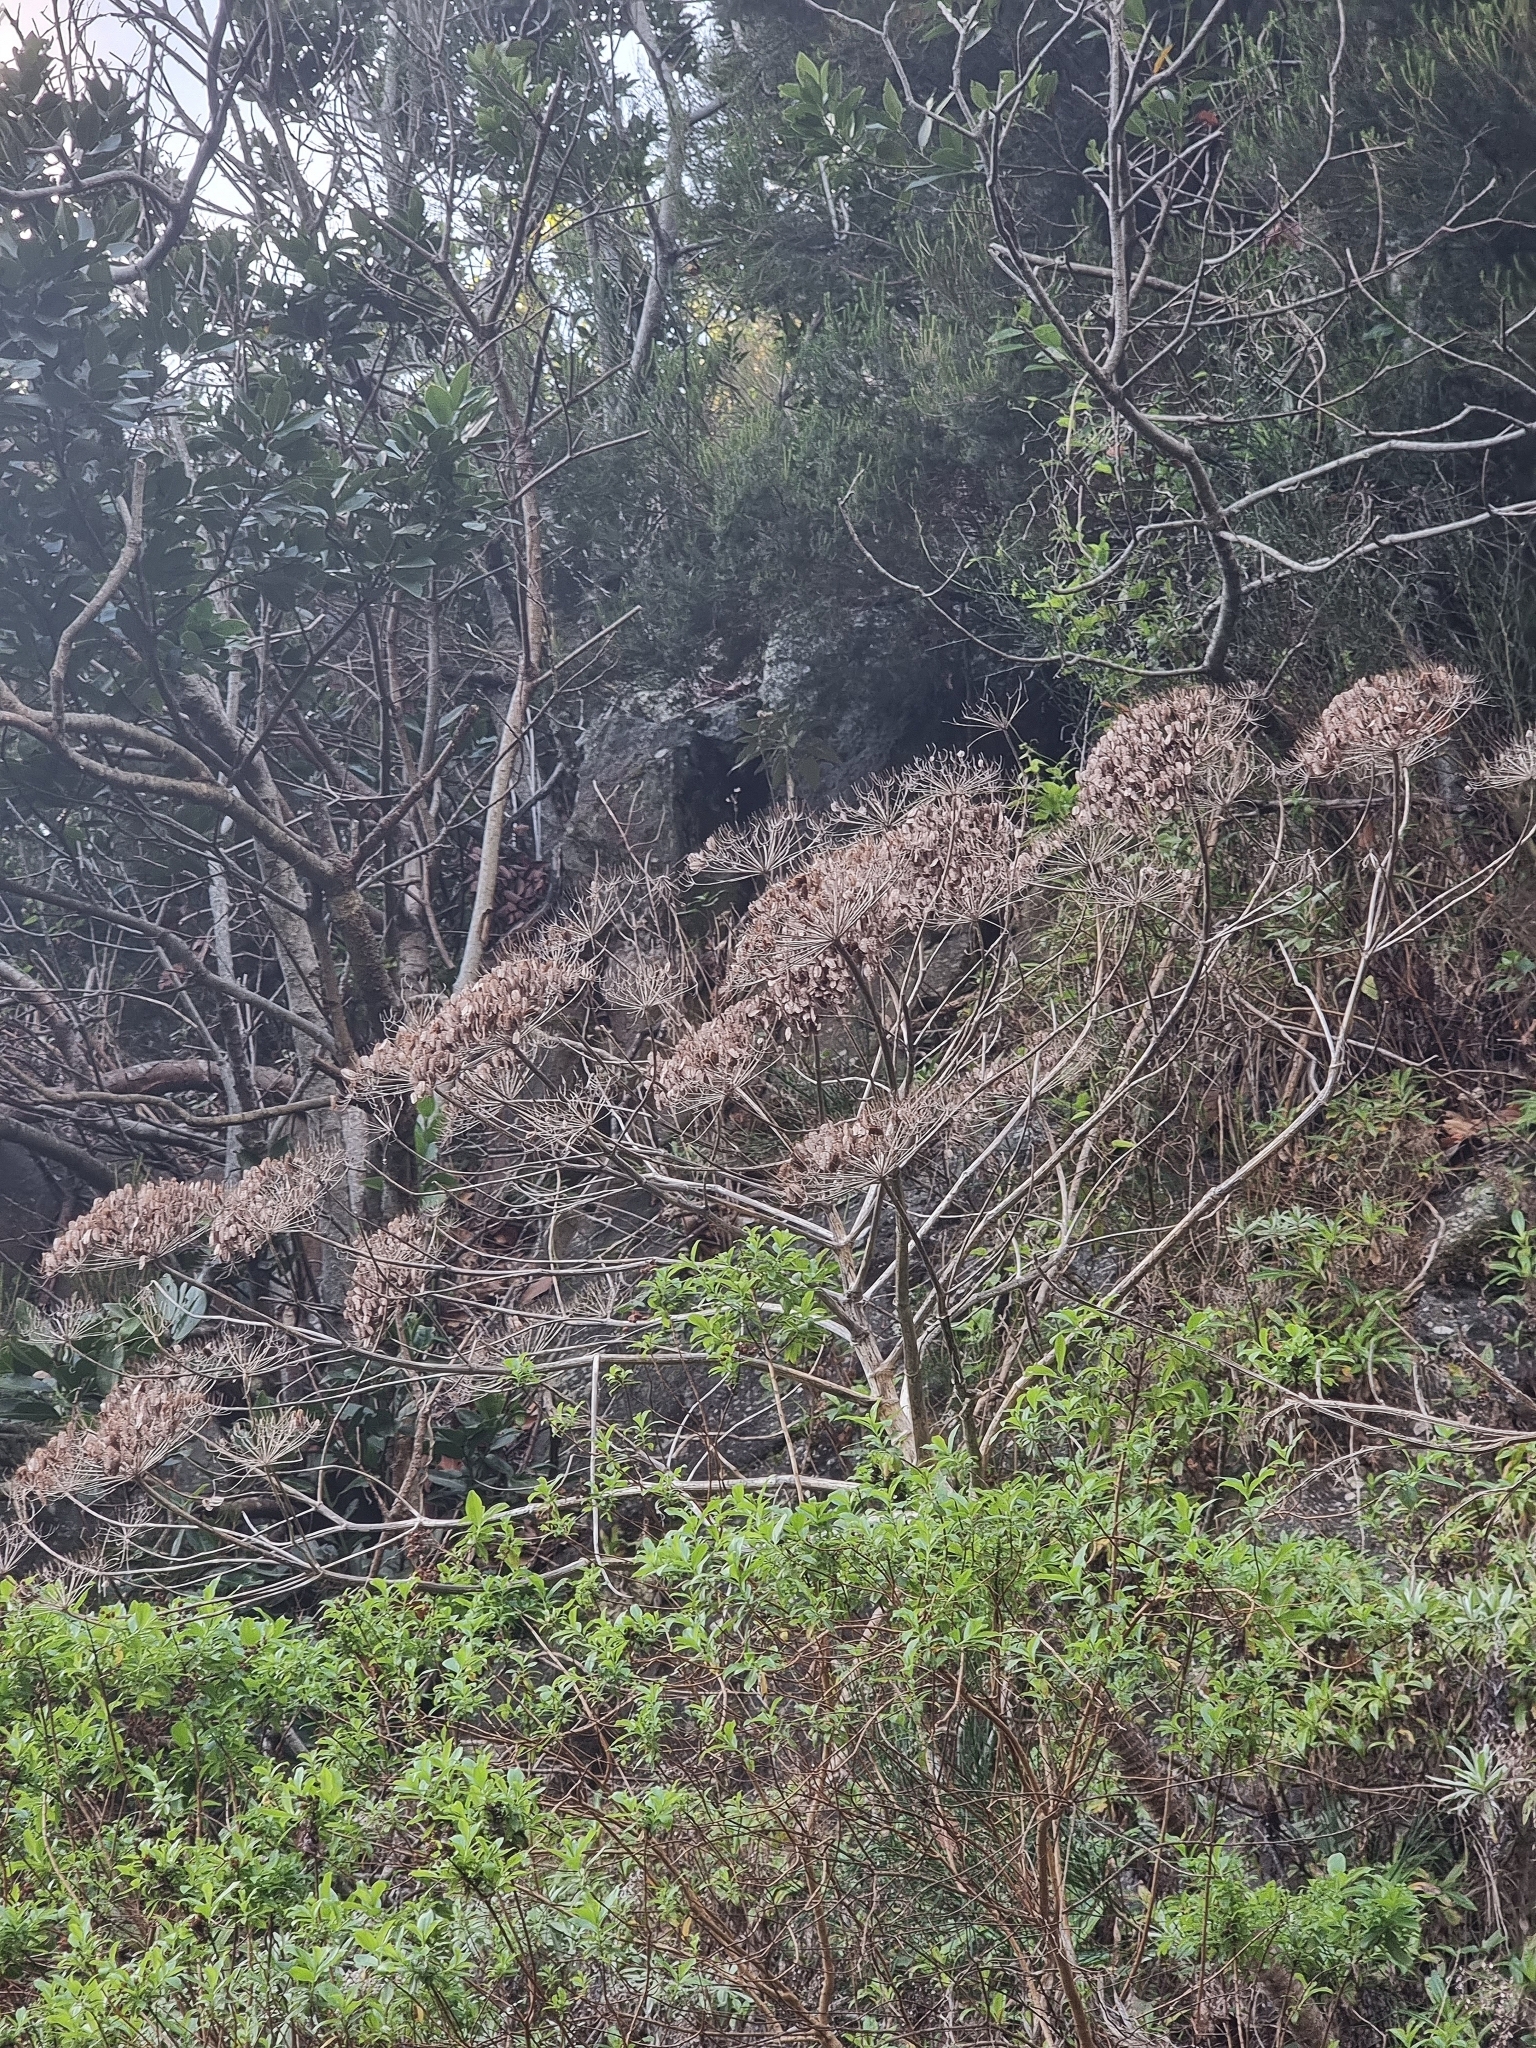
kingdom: Plantae
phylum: Tracheophyta
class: Magnoliopsida
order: Apiales
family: Apiaceae
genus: Daucus
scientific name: Daucus decipiens
